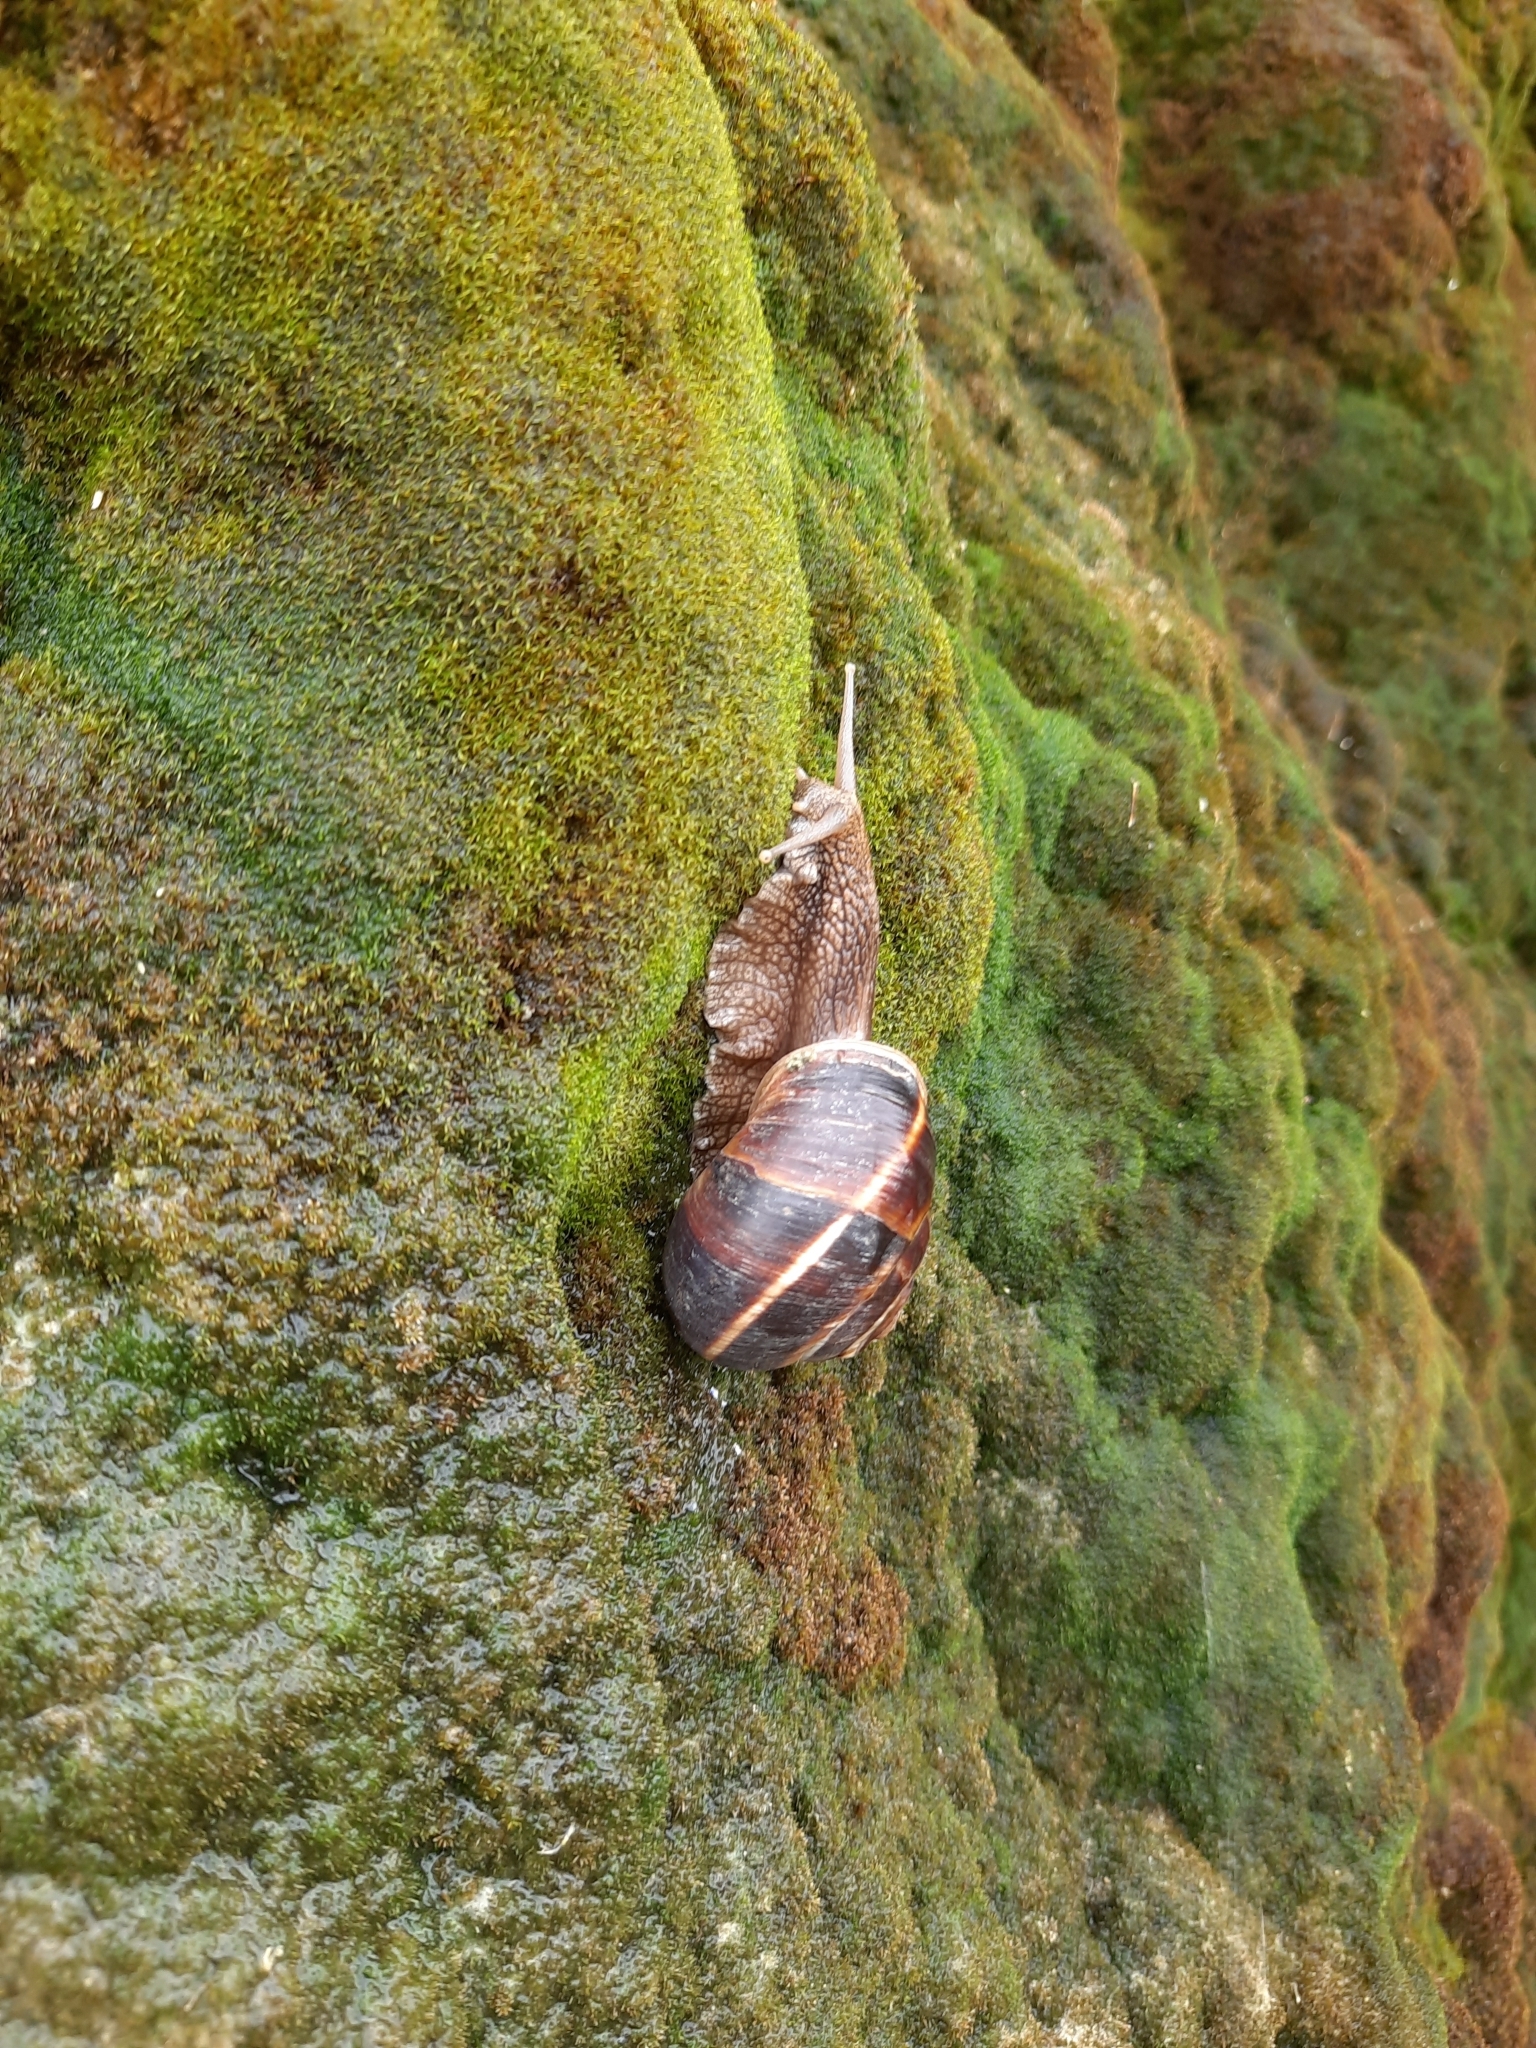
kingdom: Animalia
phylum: Mollusca
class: Gastropoda
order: Stylommatophora
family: Helicidae
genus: Helix
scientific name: Helix lucorum
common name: Turkish snail
